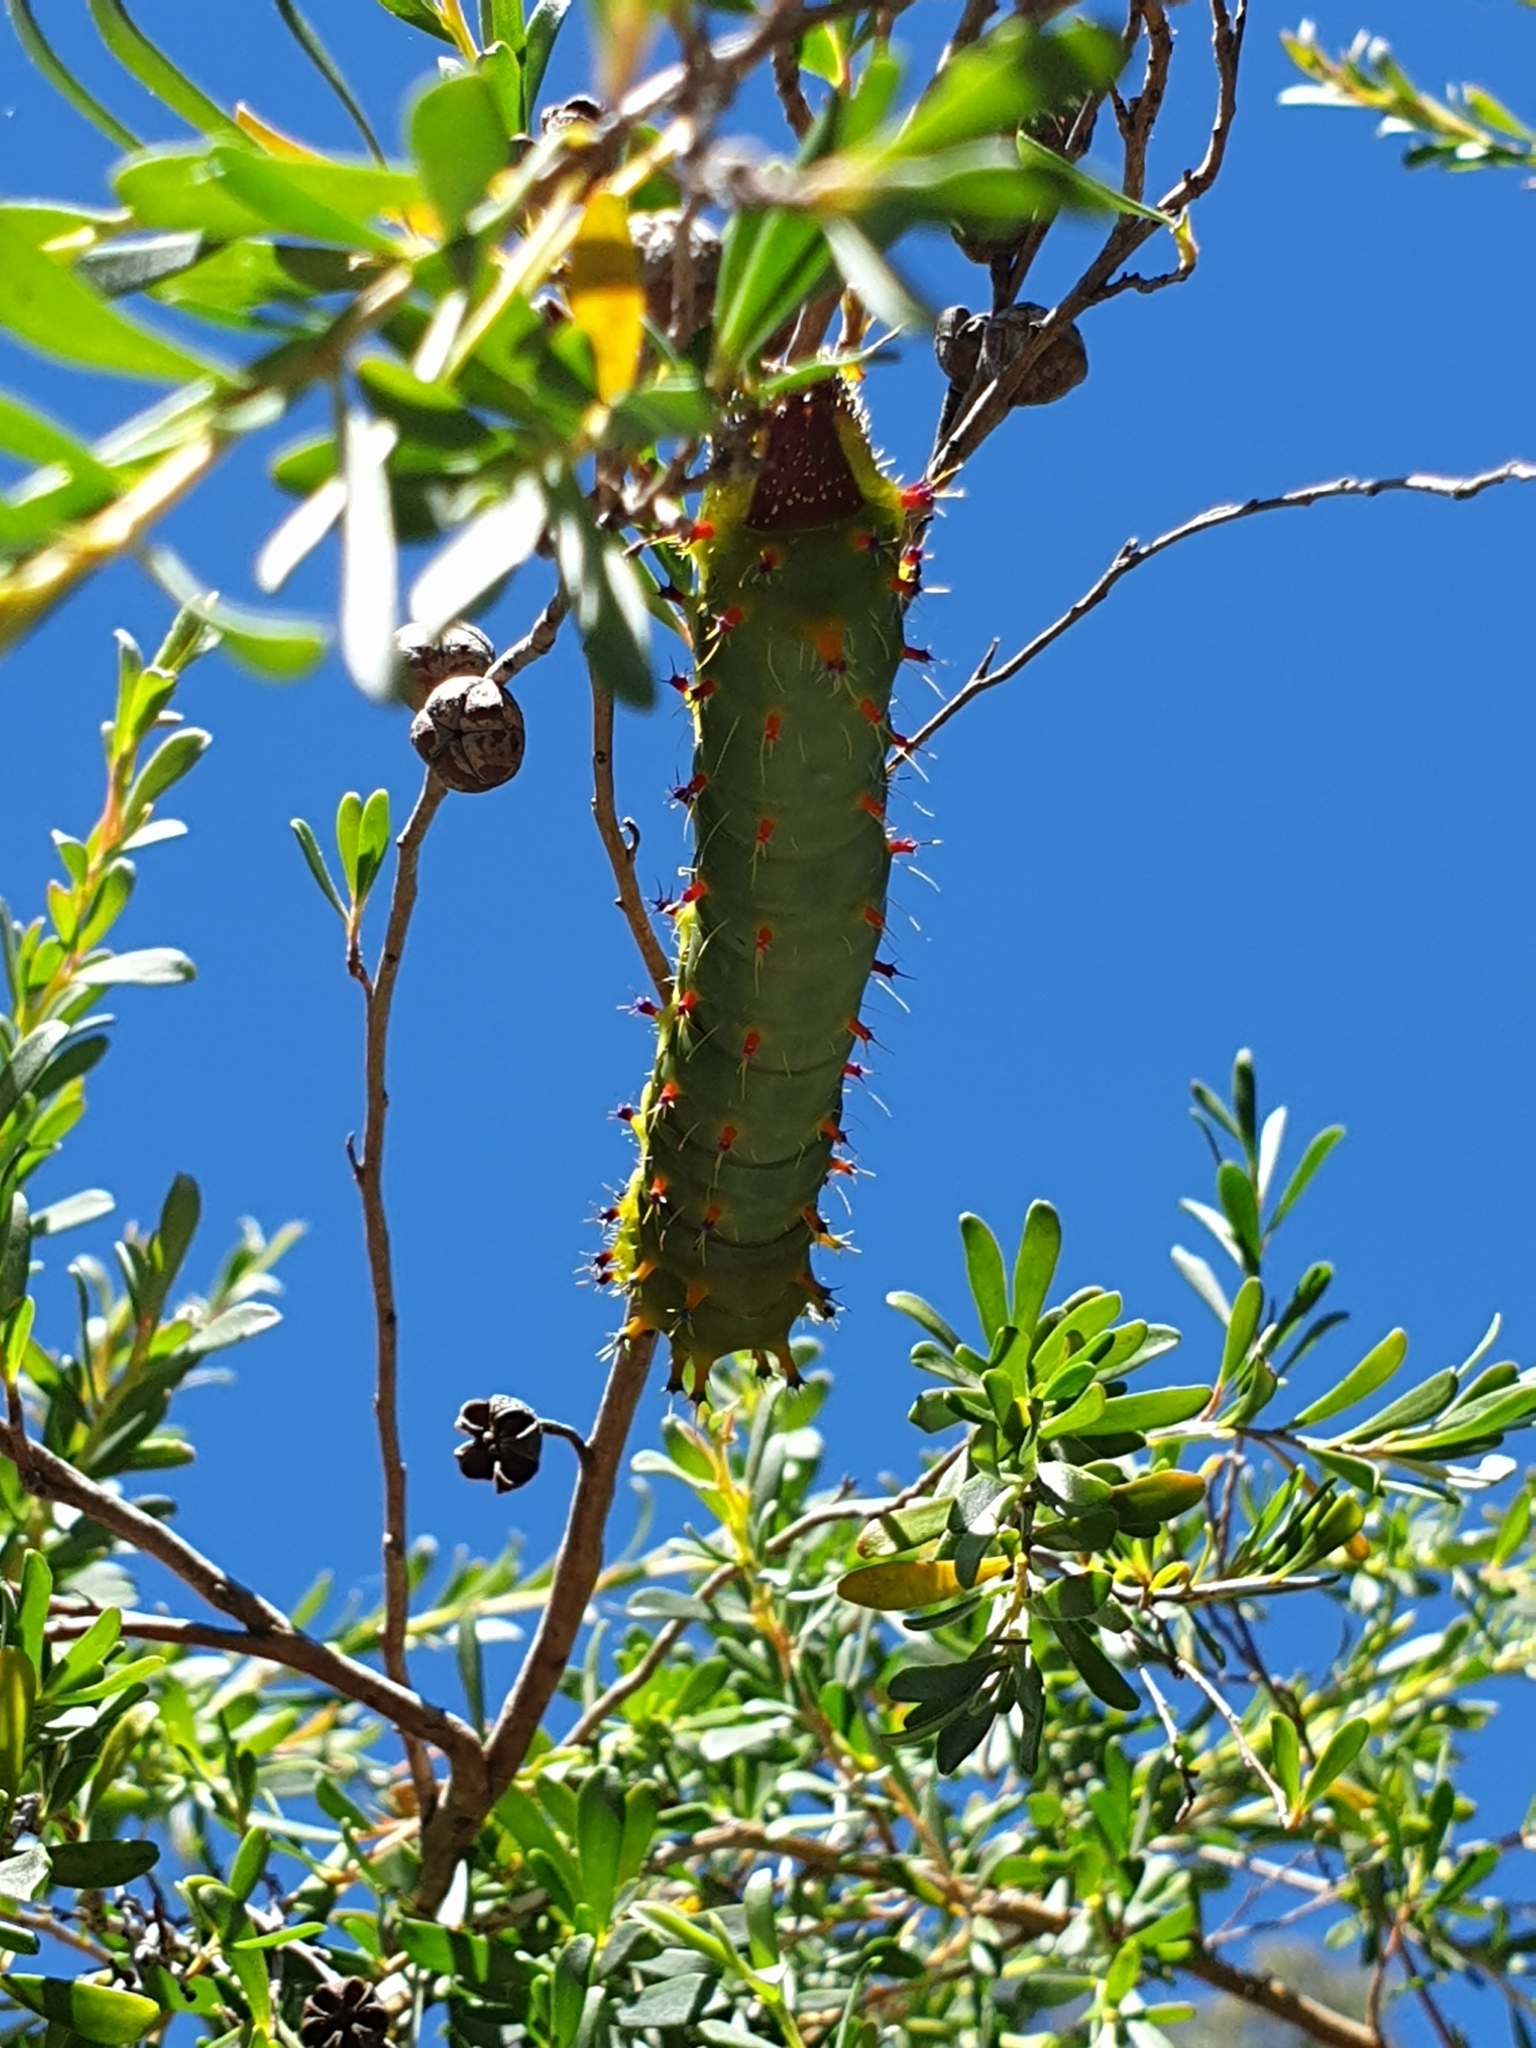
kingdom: Animalia
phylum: Arthropoda
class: Insecta
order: Lepidoptera
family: Saturniidae
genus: Opodiphthera
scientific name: Opodiphthera
